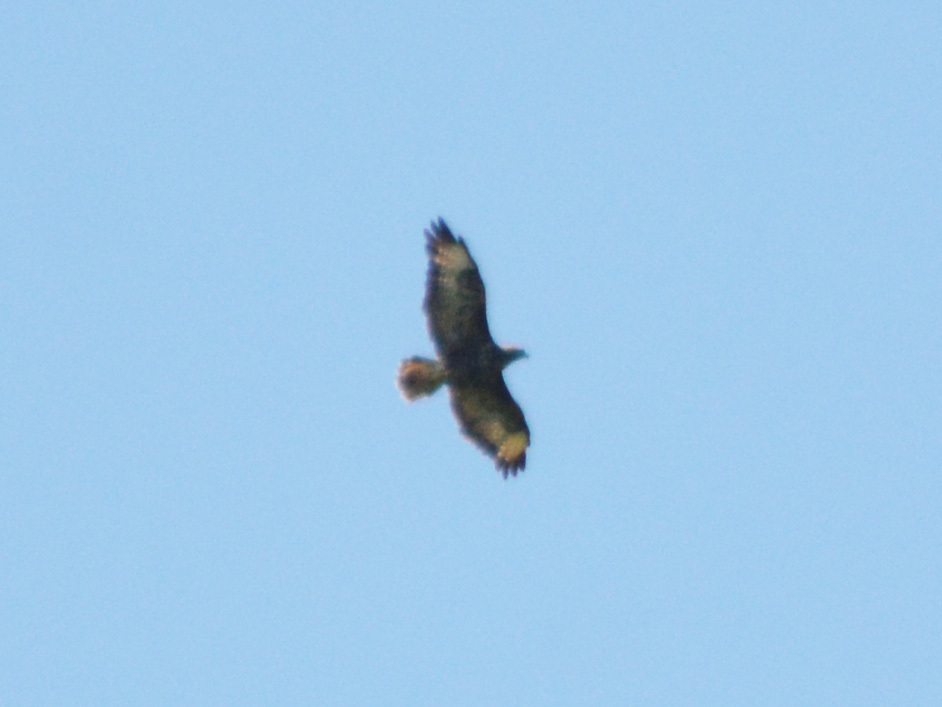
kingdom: Animalia
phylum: Chordata
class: Aves
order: Accipitriformes
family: Accipitridae
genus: Buteo
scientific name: Buteo buteo
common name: Common buzzard
